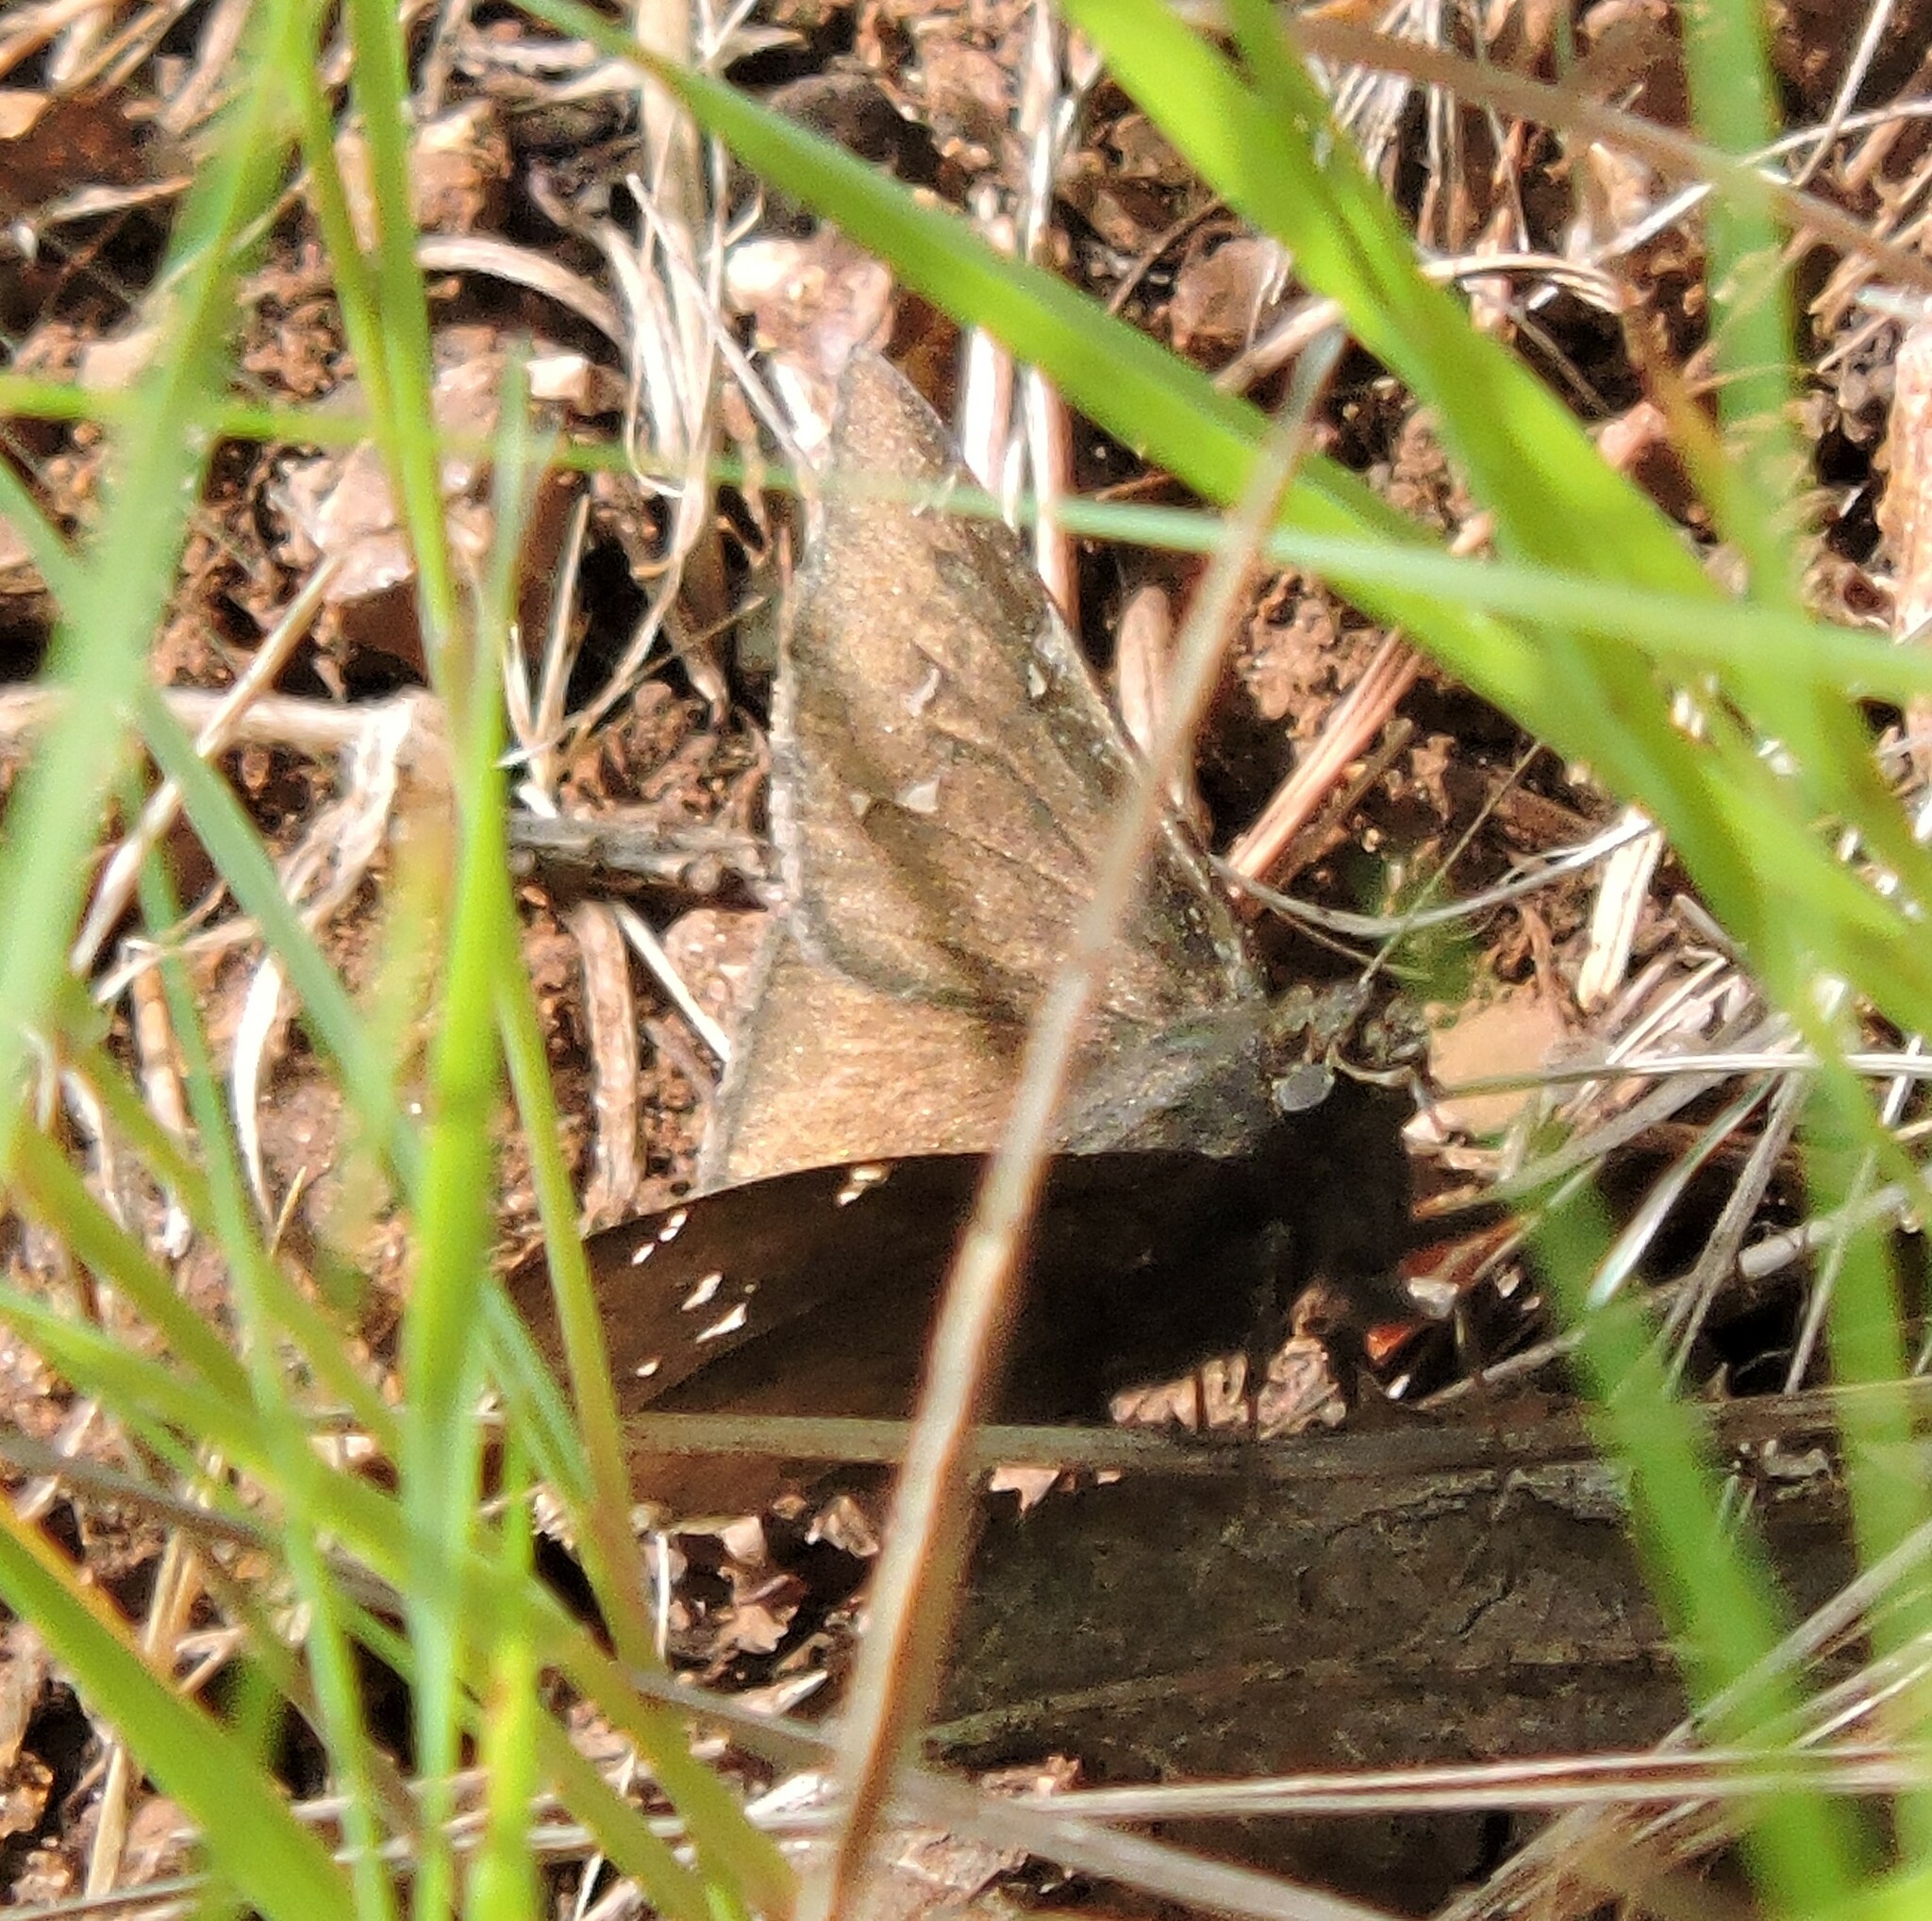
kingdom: Animalia
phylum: Arthropoda
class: Insecta
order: Lepidoptera
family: Hesperiidae
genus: Thorybes
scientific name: Thorybes pylades
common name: Northern cloudywing
